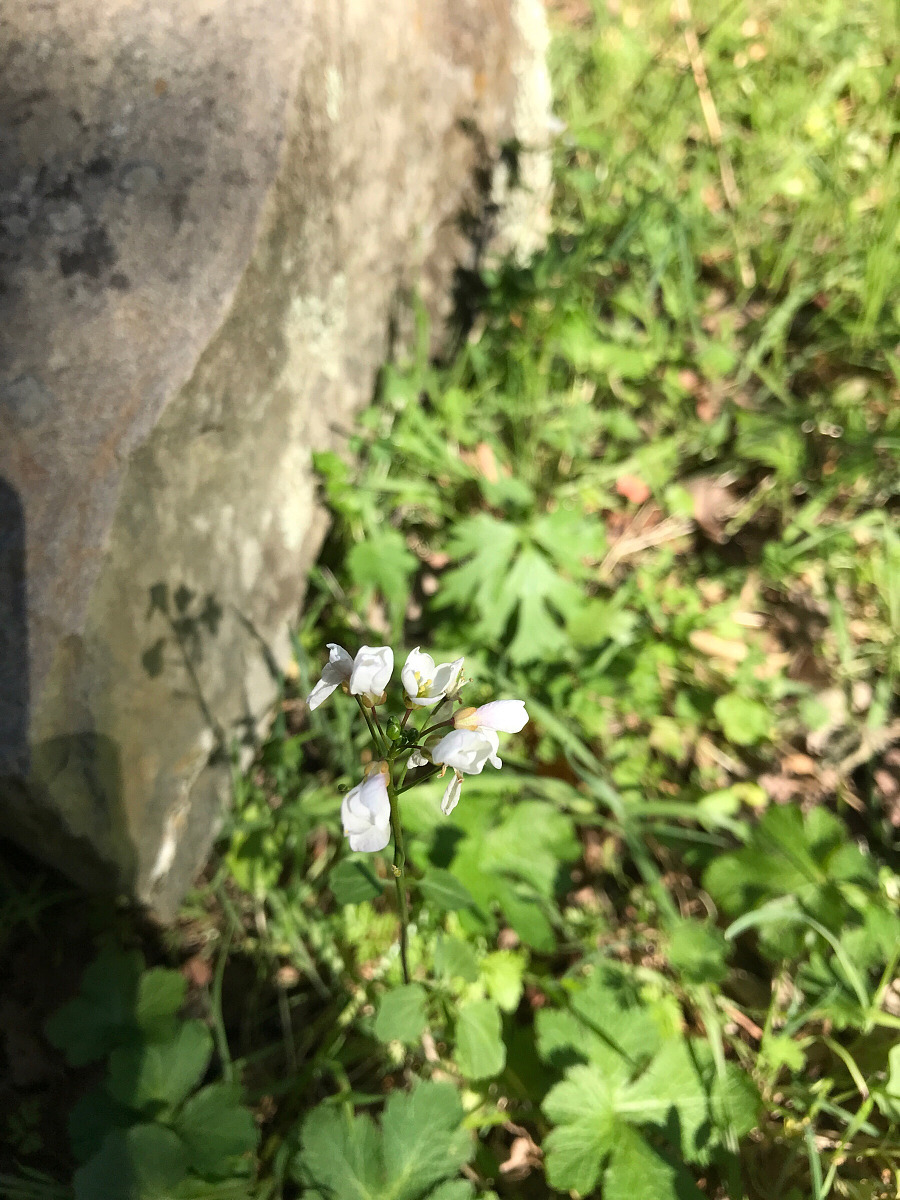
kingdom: Plantae
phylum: Tracheophyta
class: Magnoliopsida
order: Brassicales
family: Brassicaceae
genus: Cardamine
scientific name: Cardamine californica
